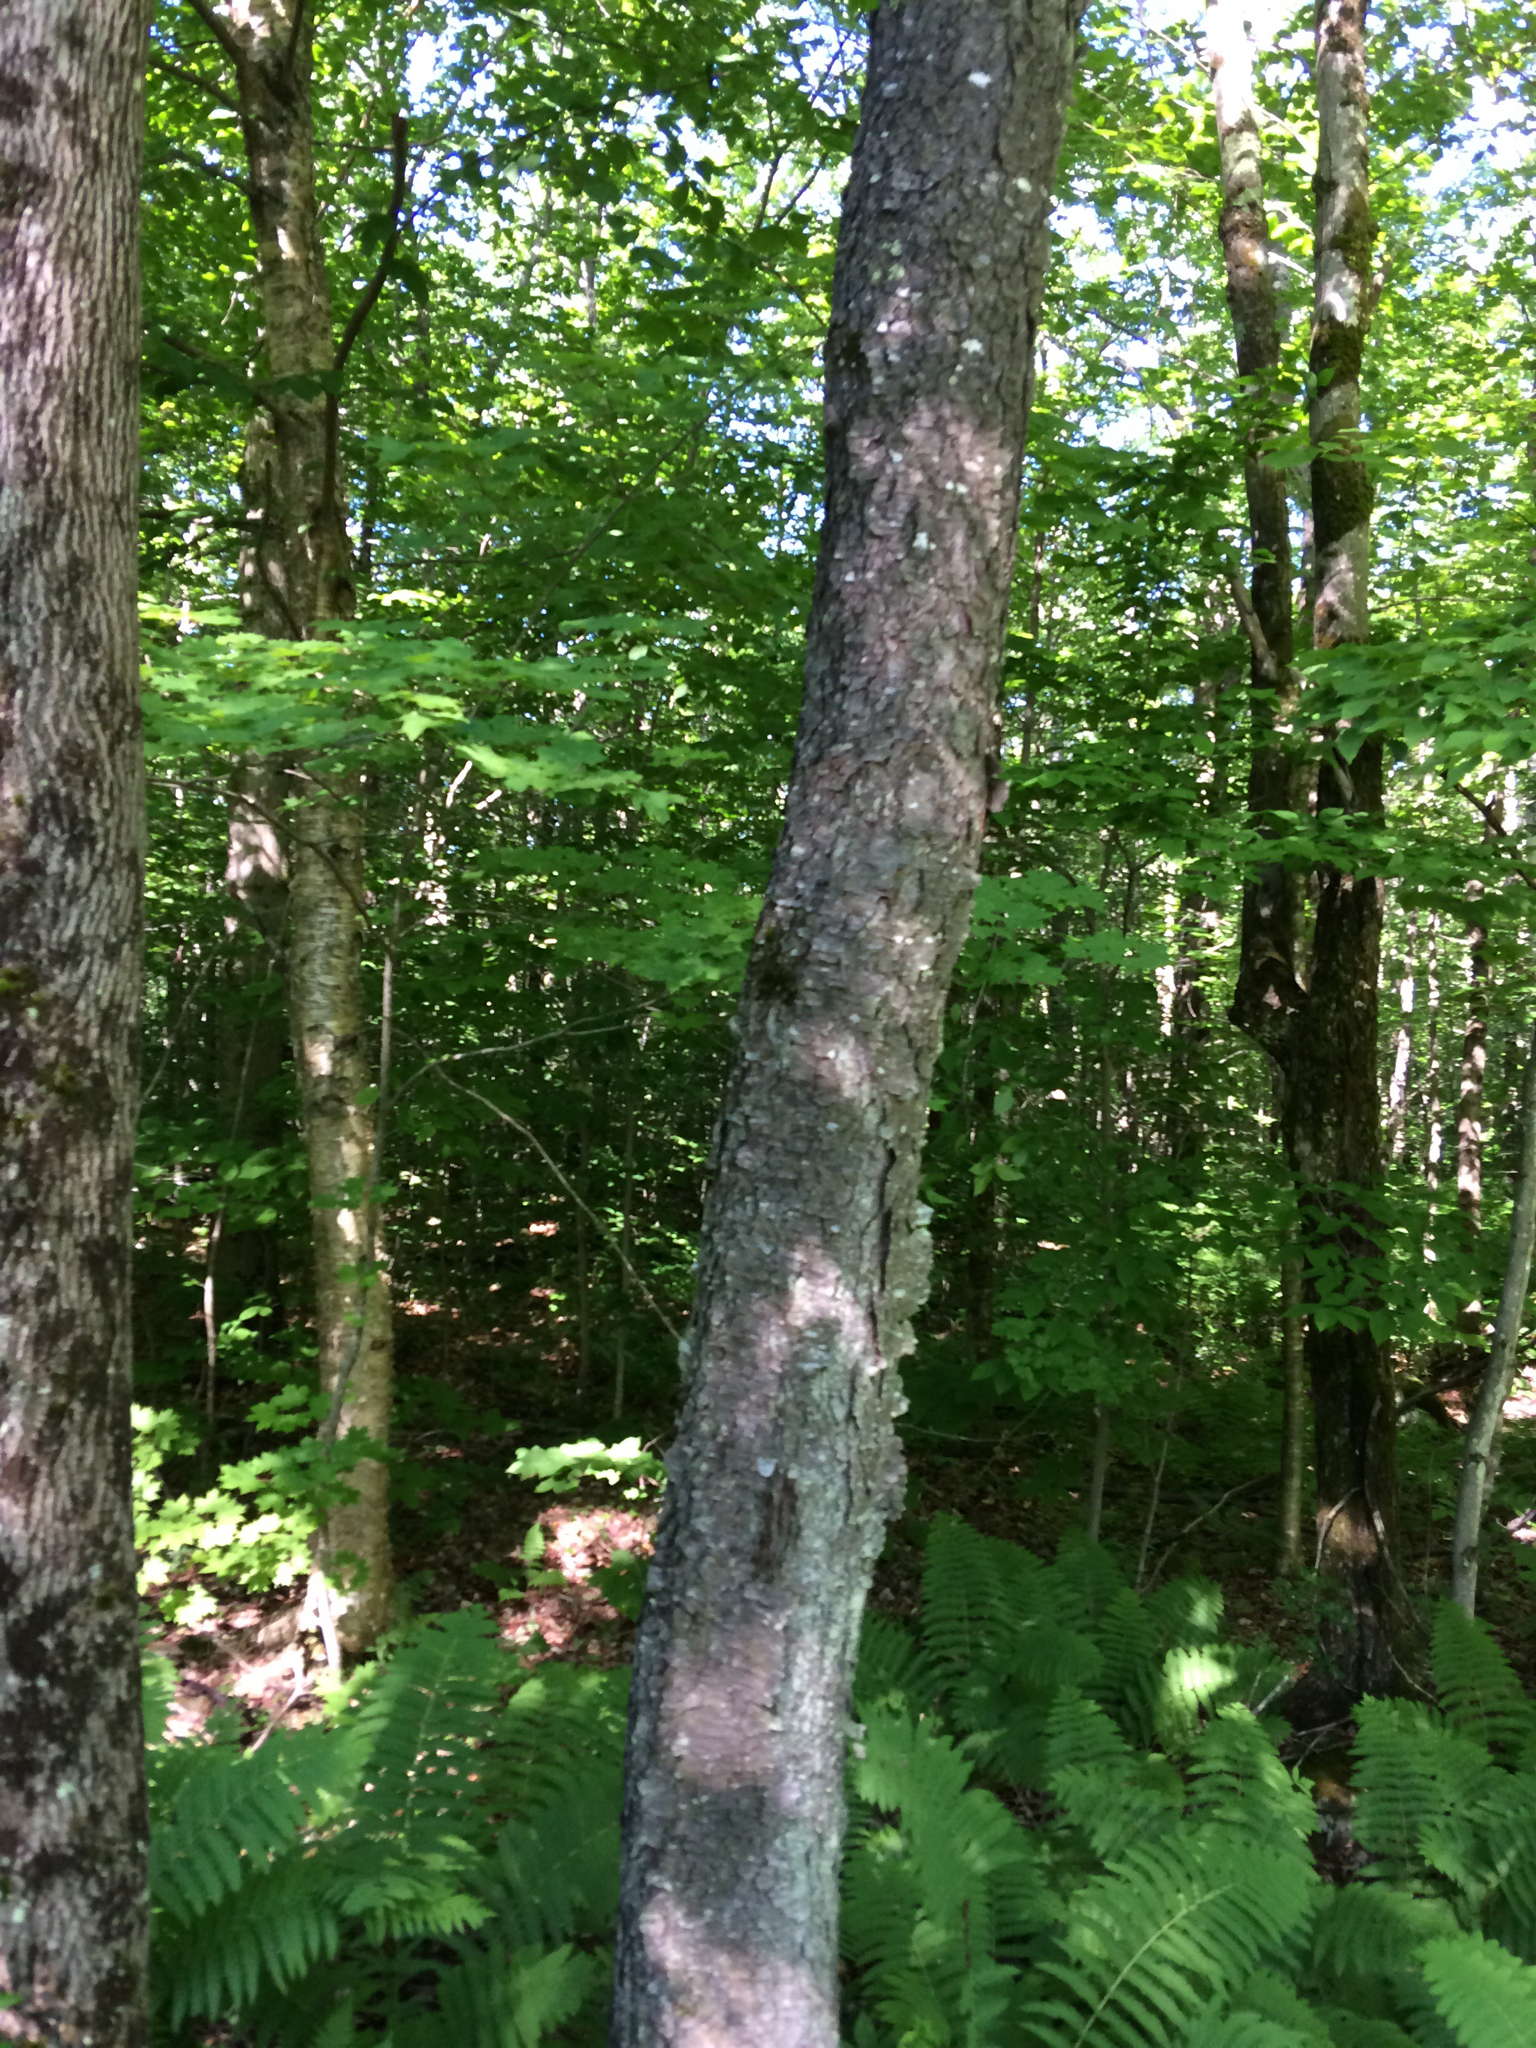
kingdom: Plantae
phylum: Tracheophyta
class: Magnoliopsida
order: Rosales
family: Rosaceae
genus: Prunus
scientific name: Prunus serotina
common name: Black cherry
